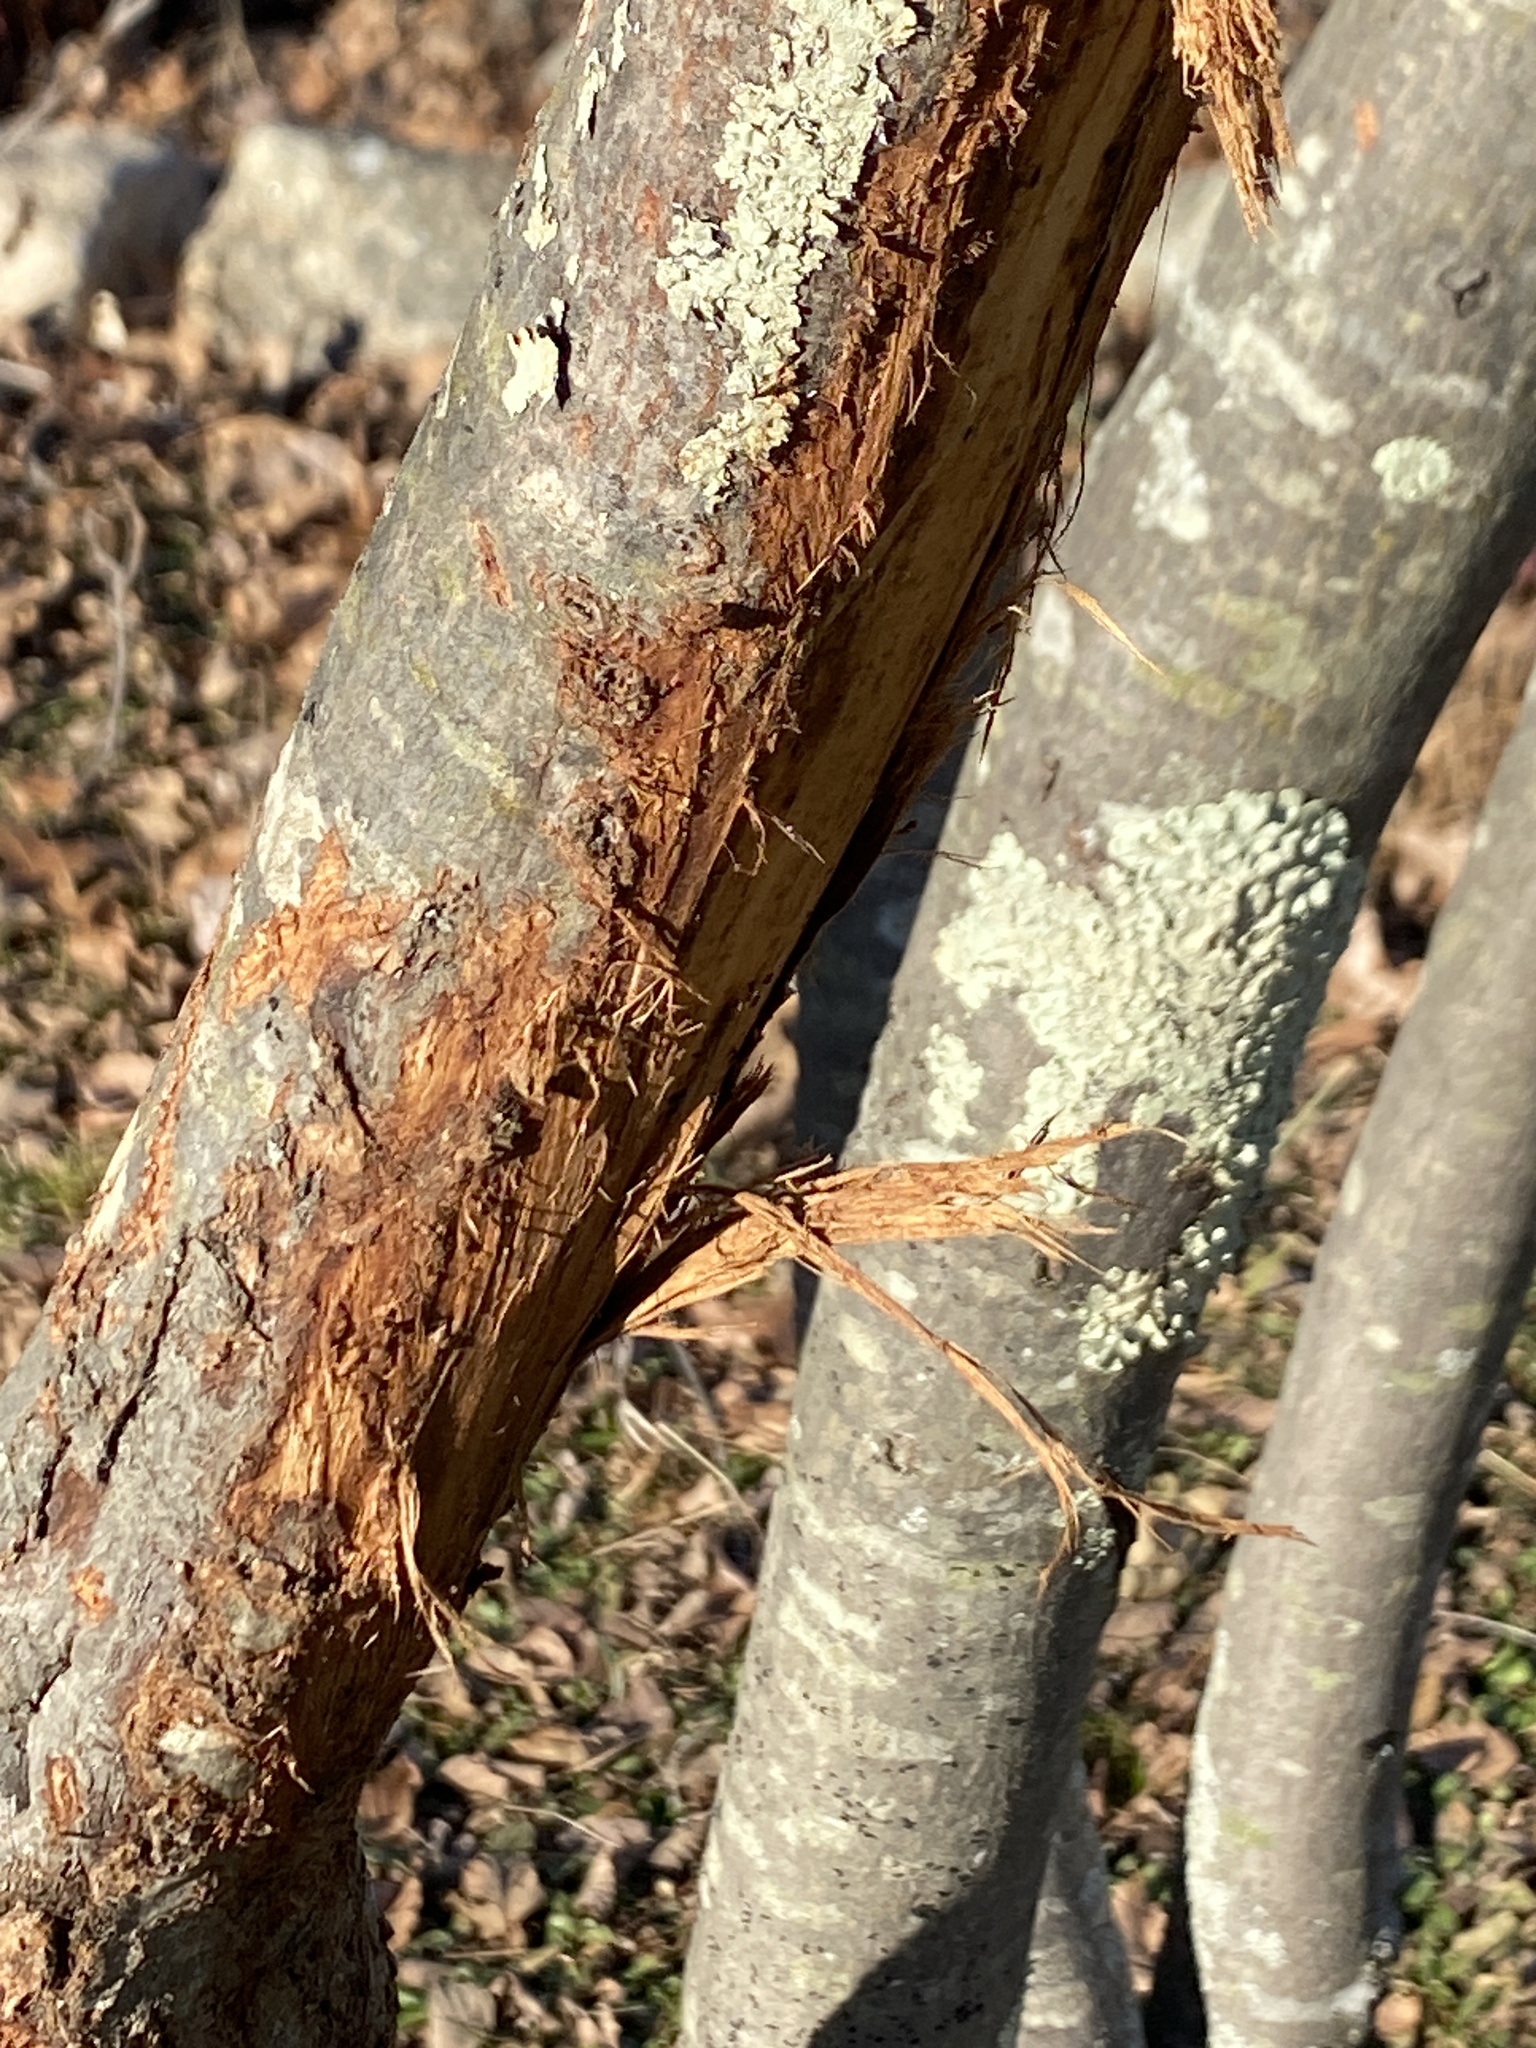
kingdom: Animalia
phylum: Chordata
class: Mammalia
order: Artiodactyla
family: Cervidae
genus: Odocoileus
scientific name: Odocoileus virginianus
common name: White-tailed deer
